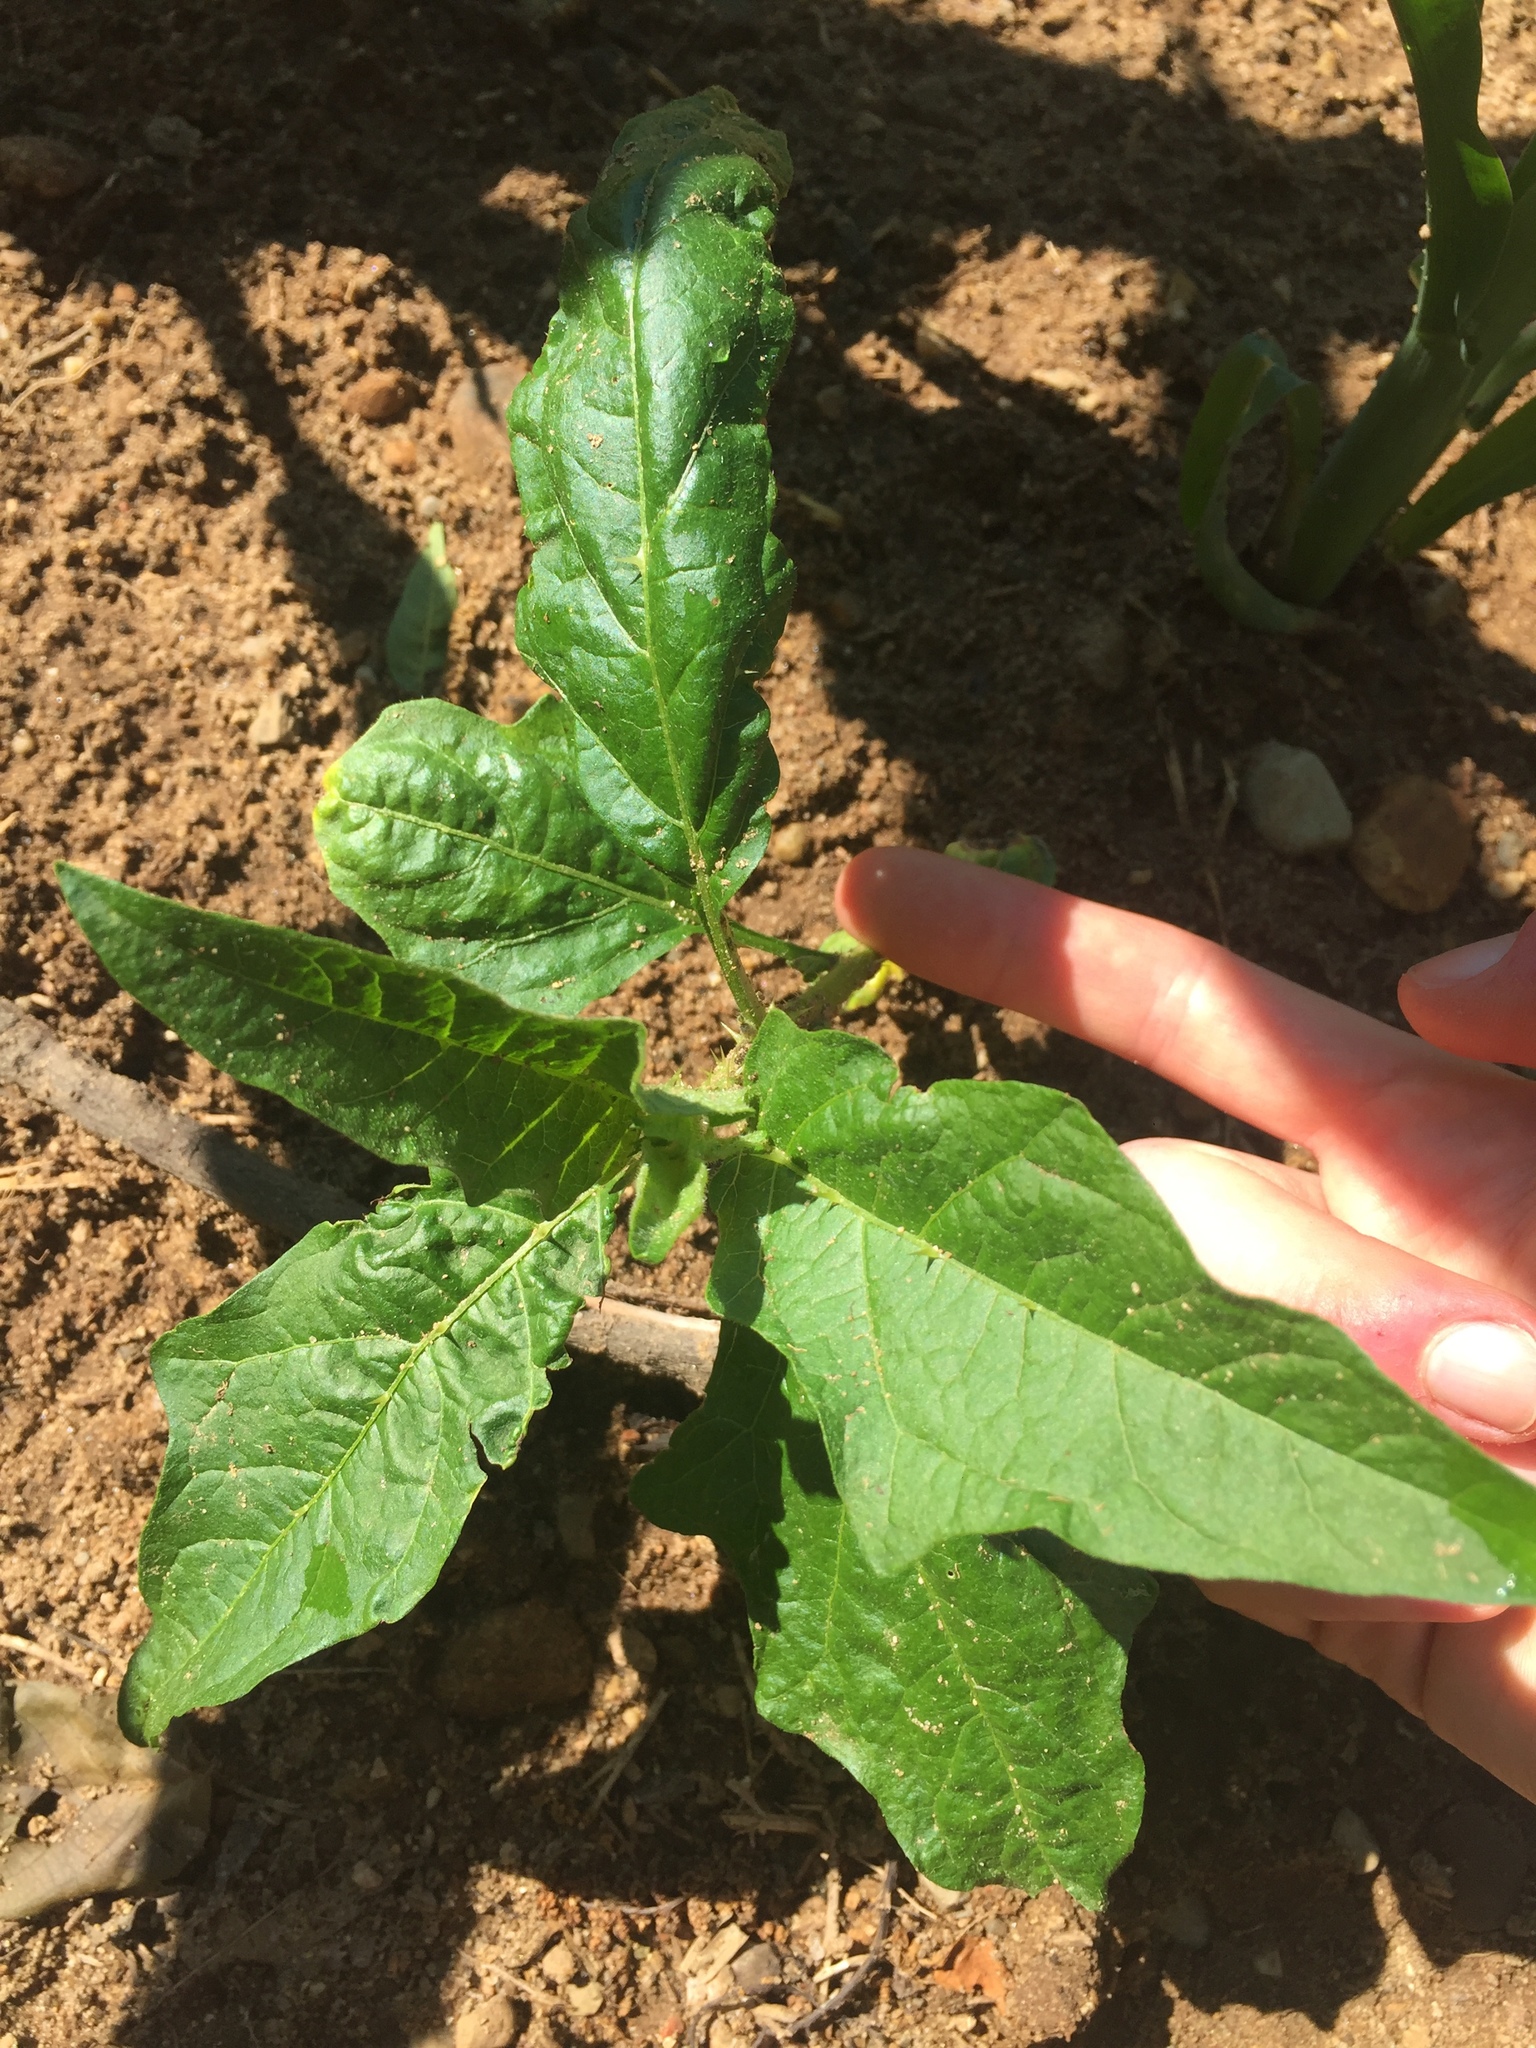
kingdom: Plantae
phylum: Tracheophyta
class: Magnoliopsida
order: Solanales
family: Solanaceae
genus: Solanum
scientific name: Solanum carolinense
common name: Horse-nettle
